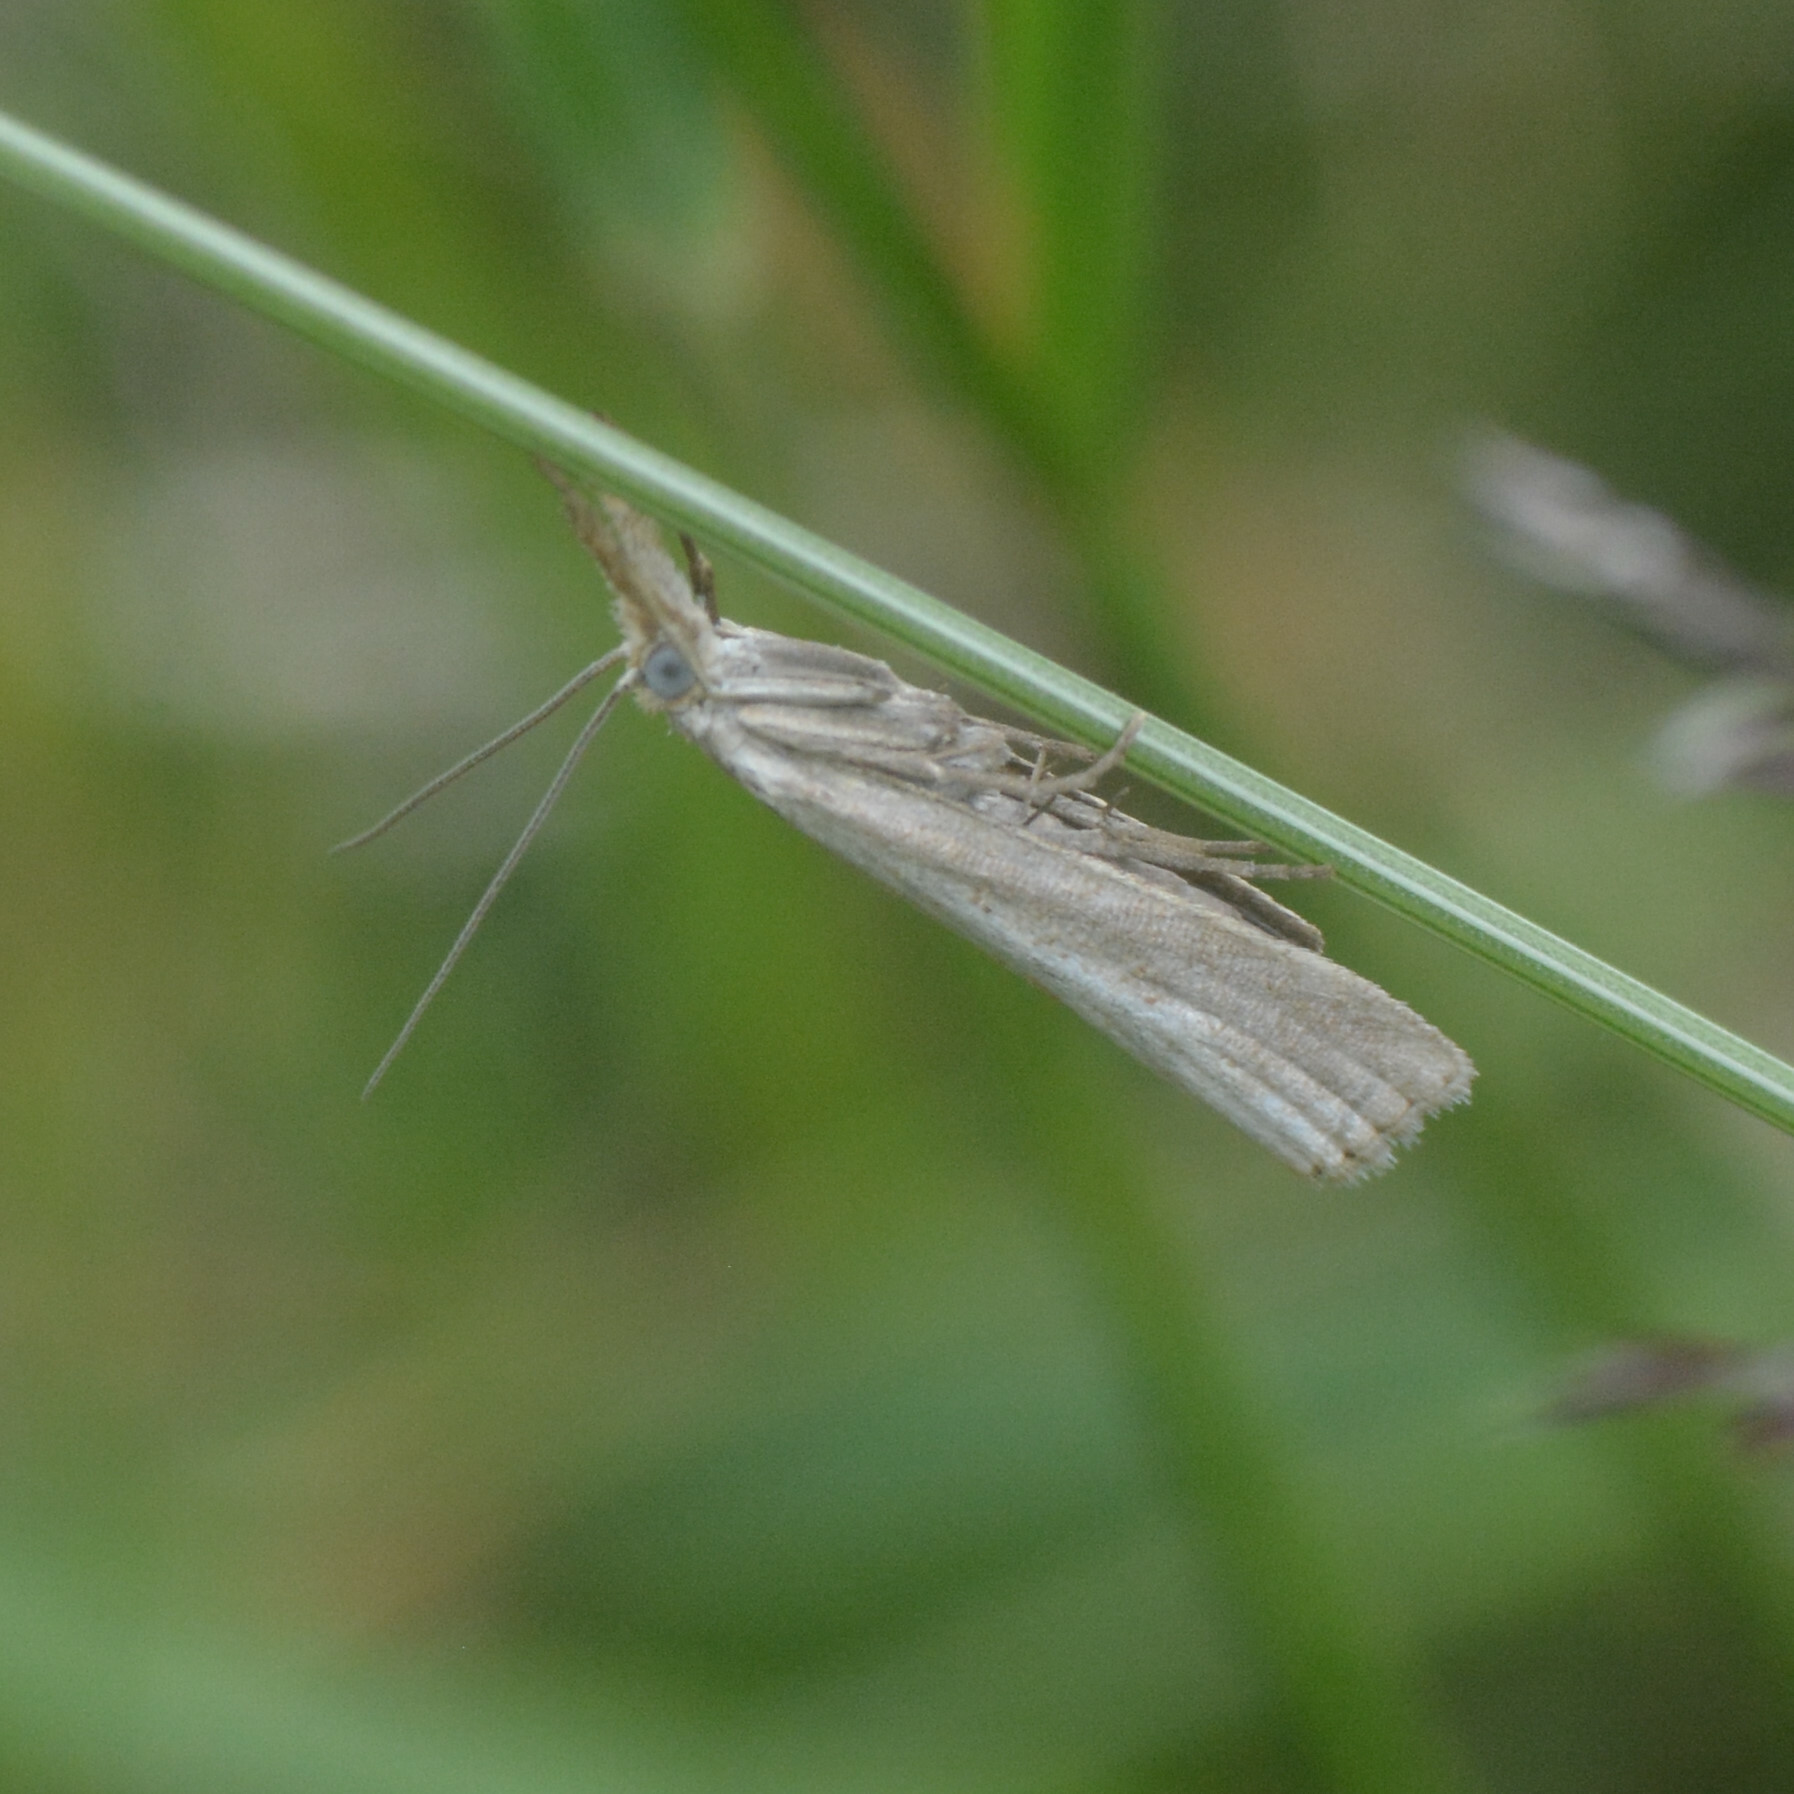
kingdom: Animalia
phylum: Arthropoda
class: Insecta
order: Lepidoptera
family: Crambidae
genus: Crambus
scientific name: Crambus perlellus
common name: Yellow satin veneer
